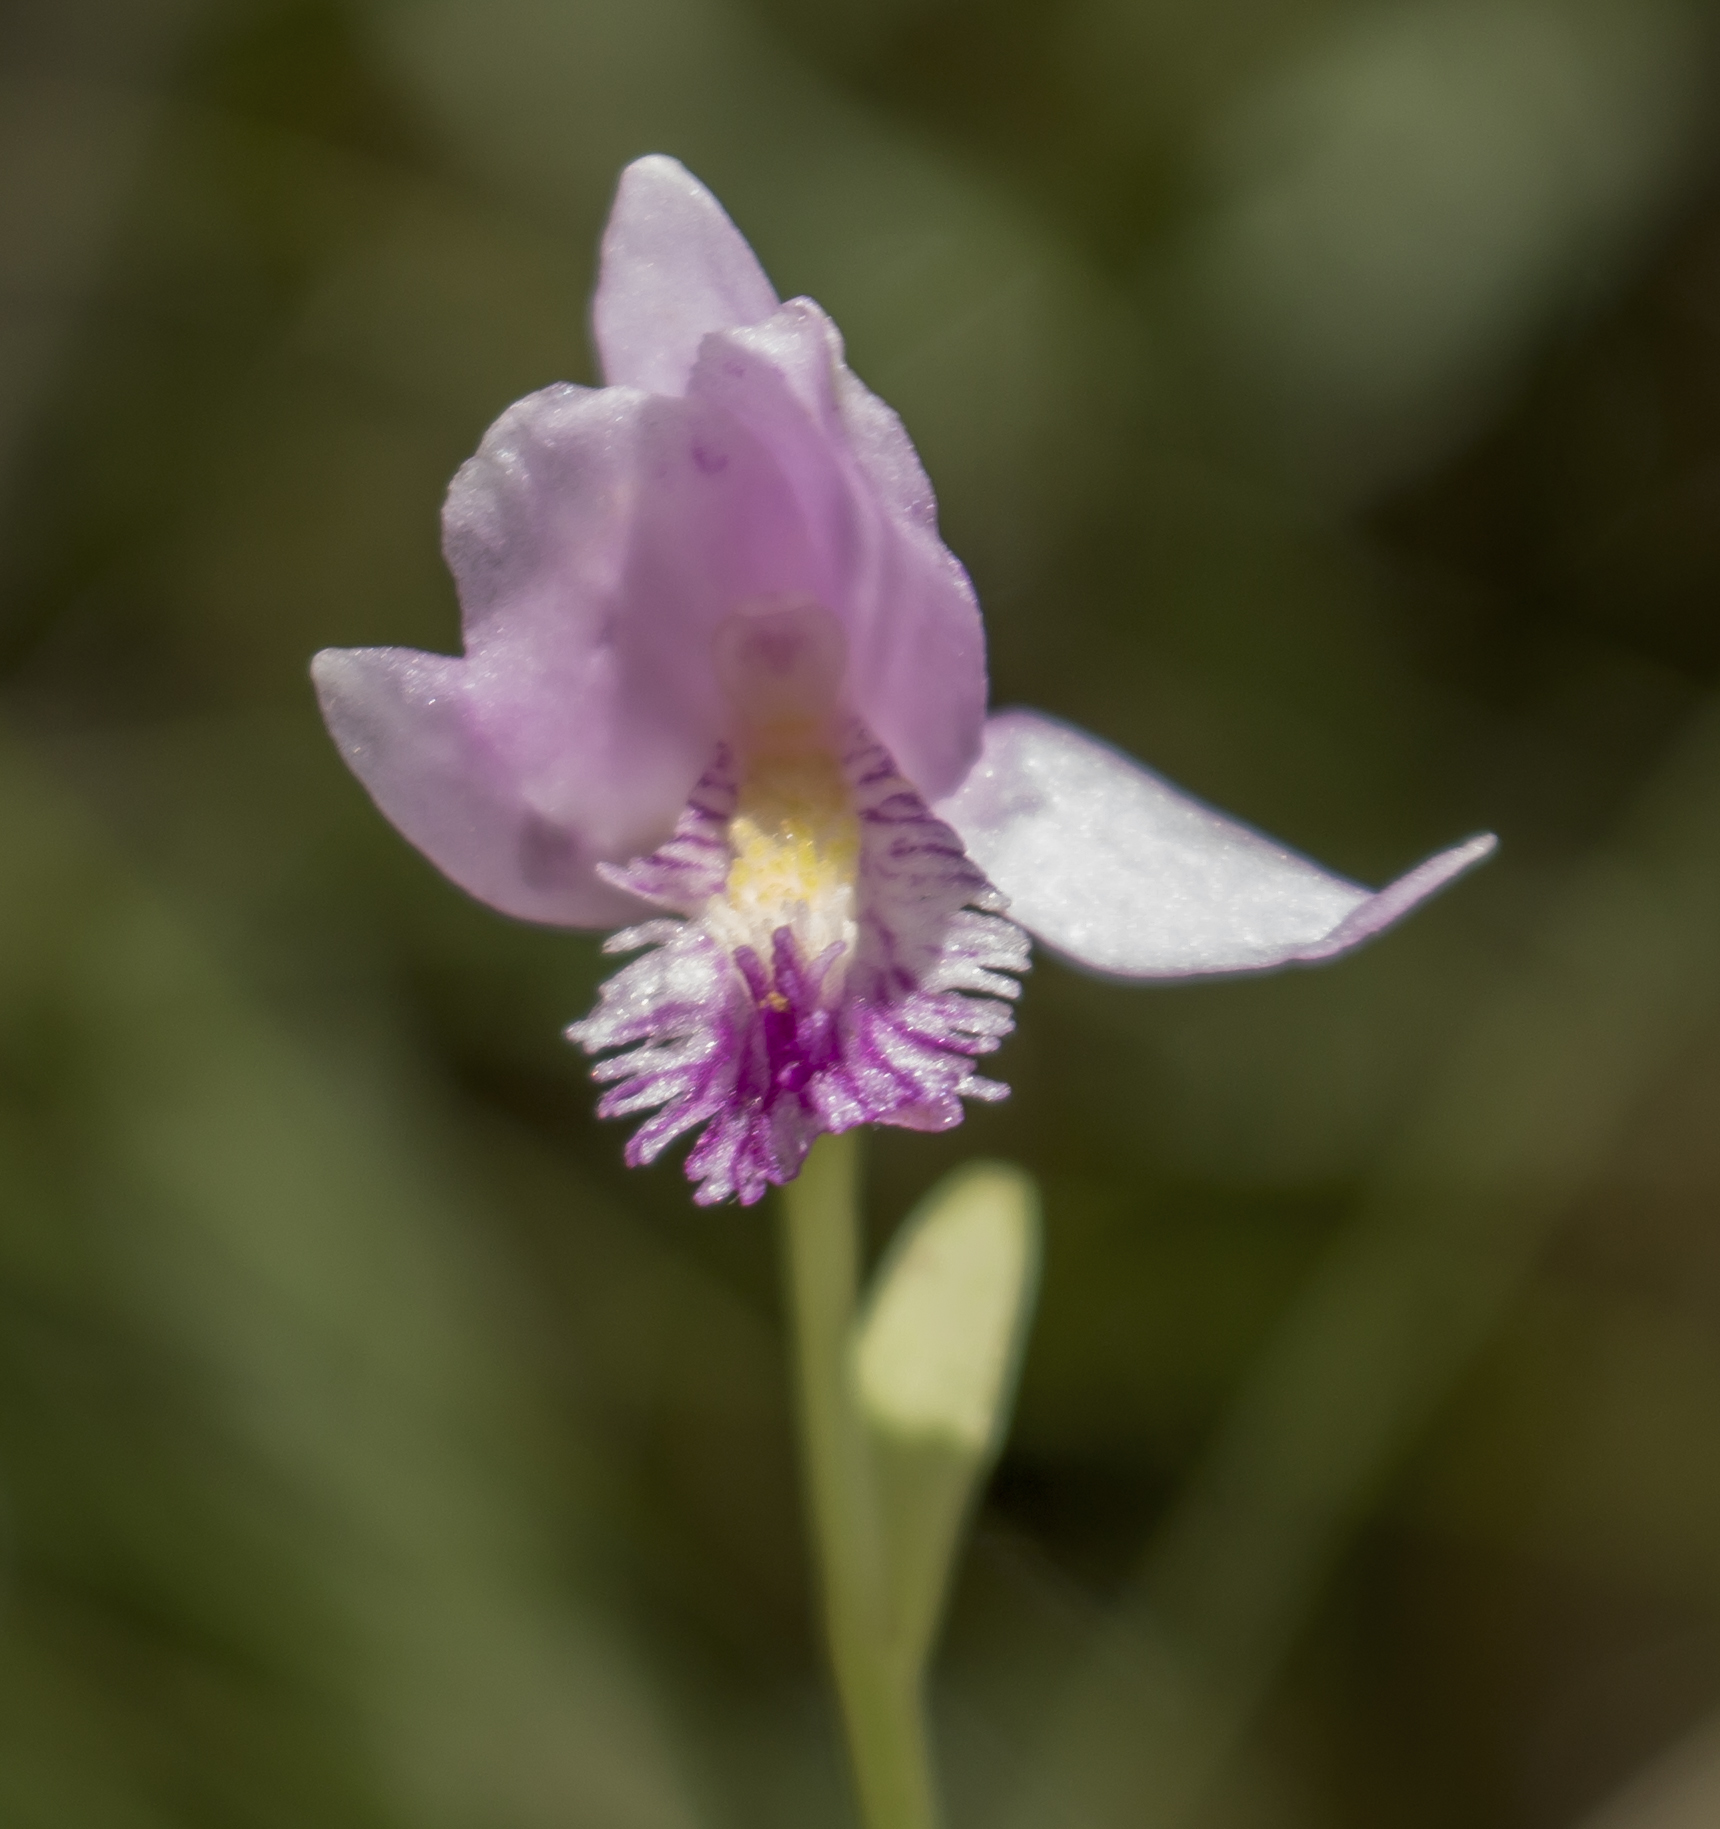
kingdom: Plantae
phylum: Tracheophyta
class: Liliopsida
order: Asparagales
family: Orchidaceae
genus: Pogonia
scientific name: Pogonia ophioglossoides
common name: Rose pogonia
